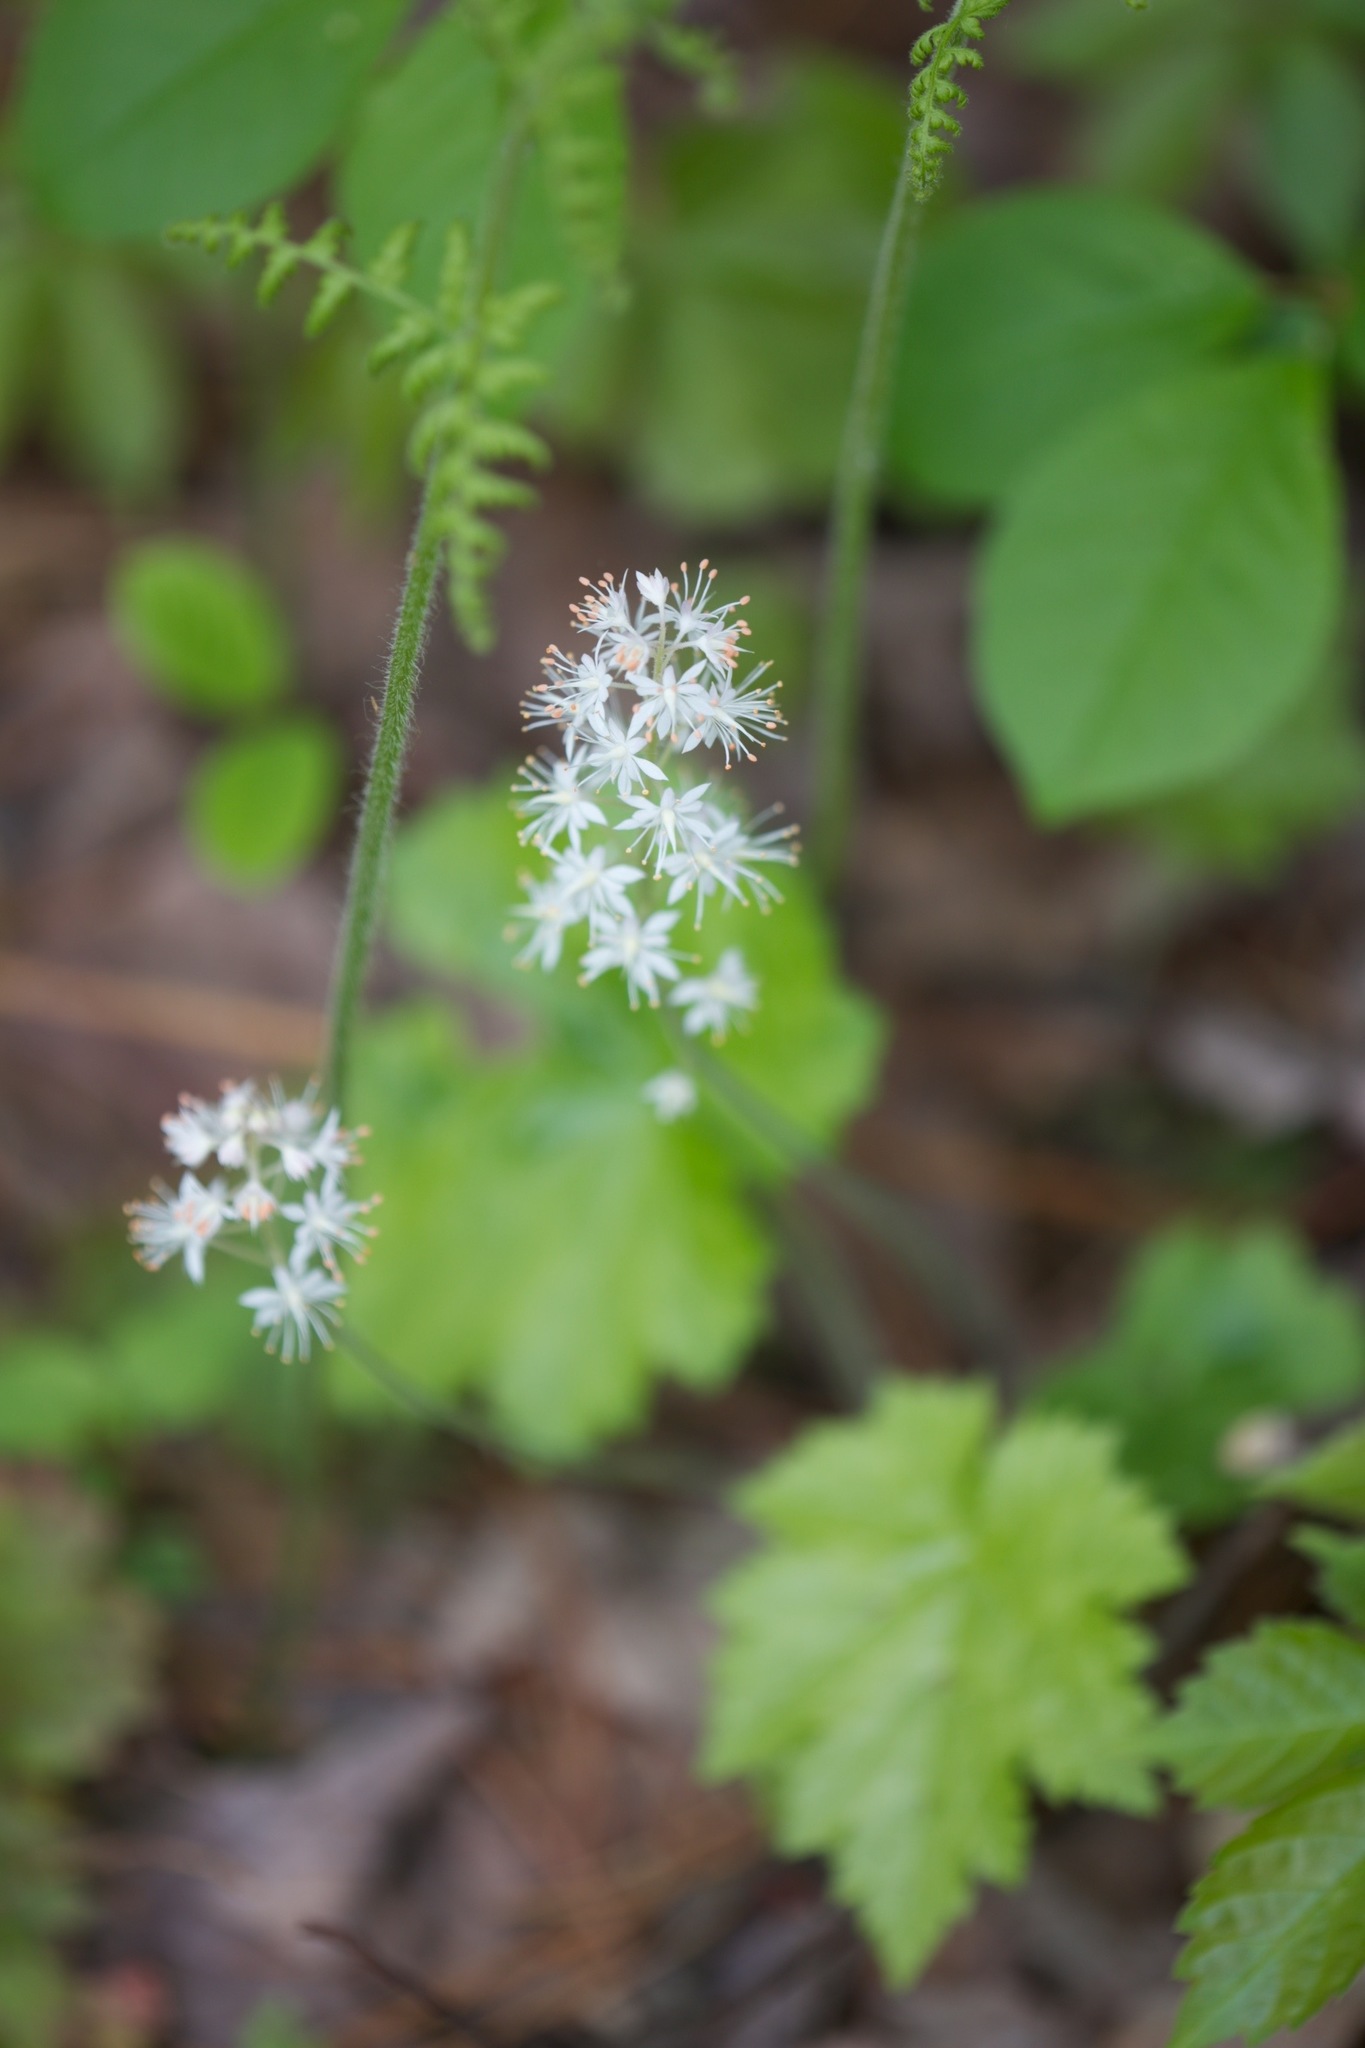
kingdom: Plantae
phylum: Tracheophyta
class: Magnoliopsida
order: Saxifragales
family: Saxifragaceae
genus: Tiarella
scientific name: Tiarella stolonifera
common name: Stoloniferous foamflower
